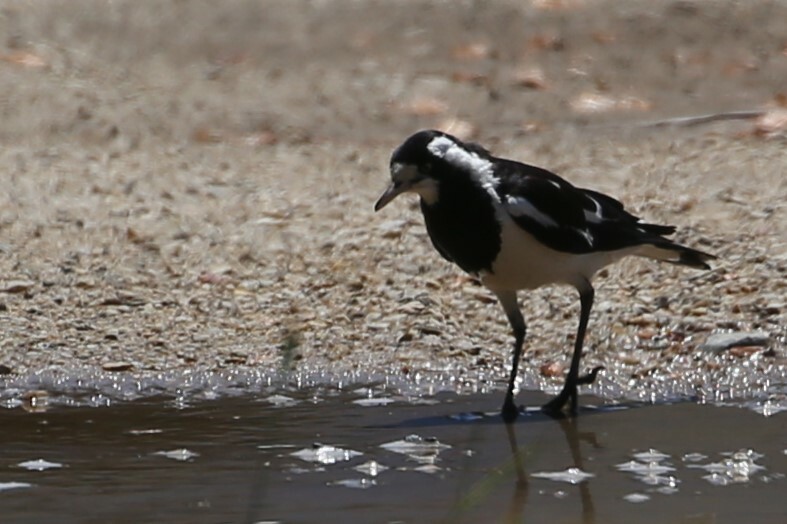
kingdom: Animalia
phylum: Chordata
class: Aves
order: Passeriformes
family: Monarchidae
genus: Grallina
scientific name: Grallina cyanoleuca
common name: Magpie-lark
